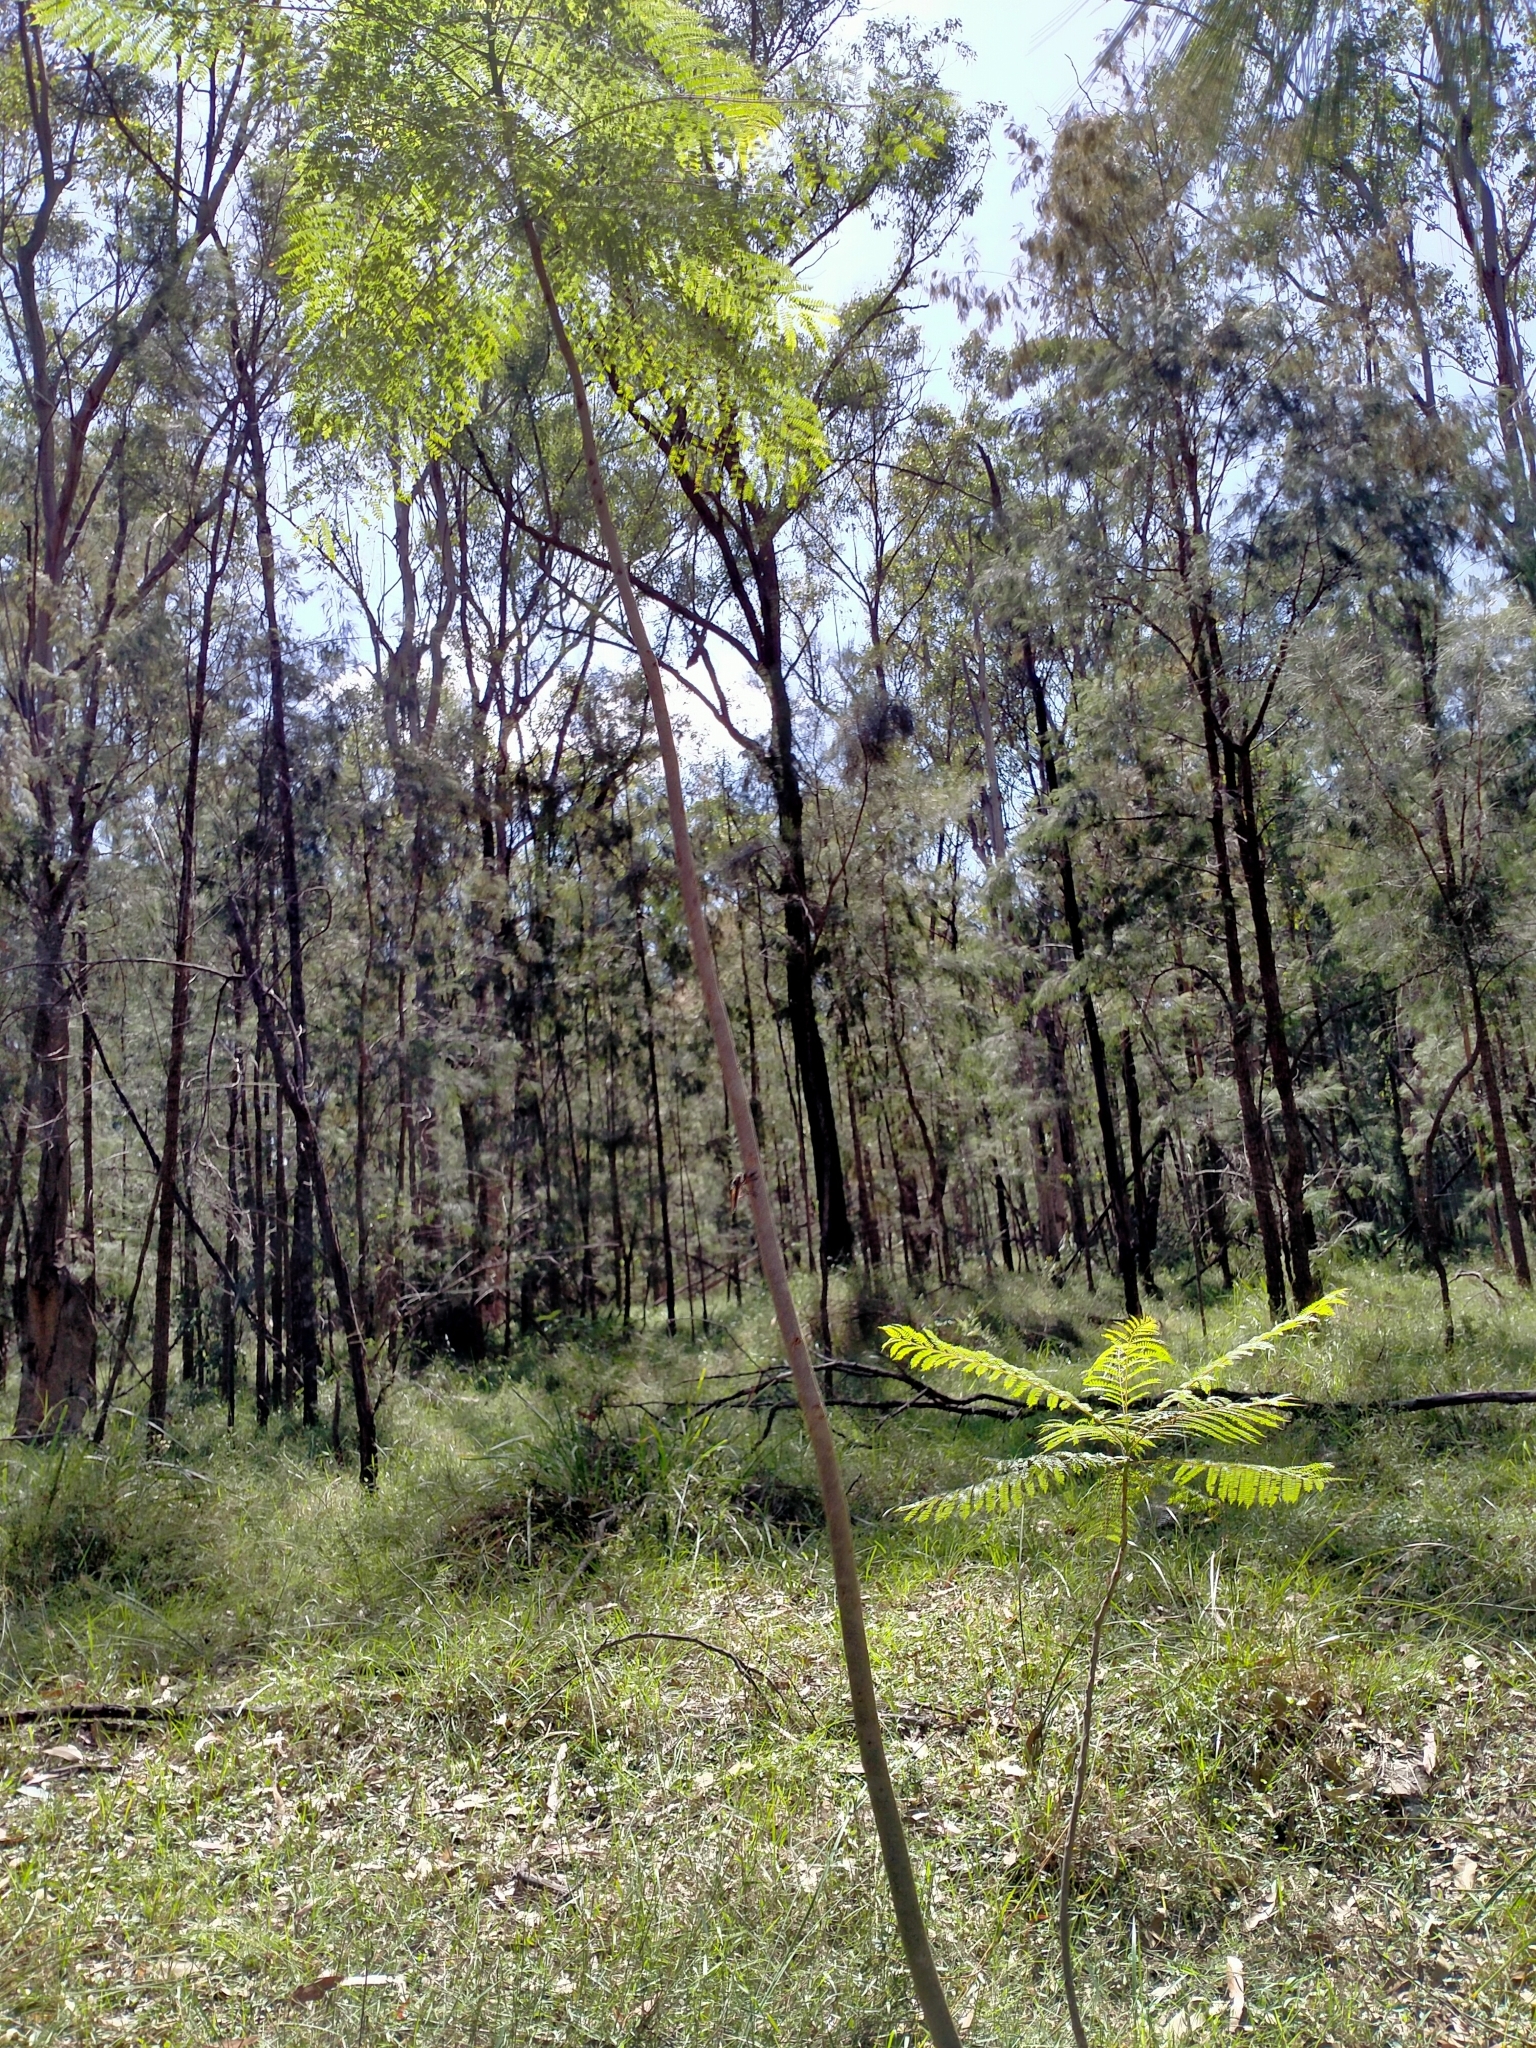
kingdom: Plantae
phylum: Tracheophyta
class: Magnoliopsida
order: Lamiales
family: Bignoniaceae
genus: Jacaranda
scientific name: Jacaranda mimosifolia
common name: Black poui
